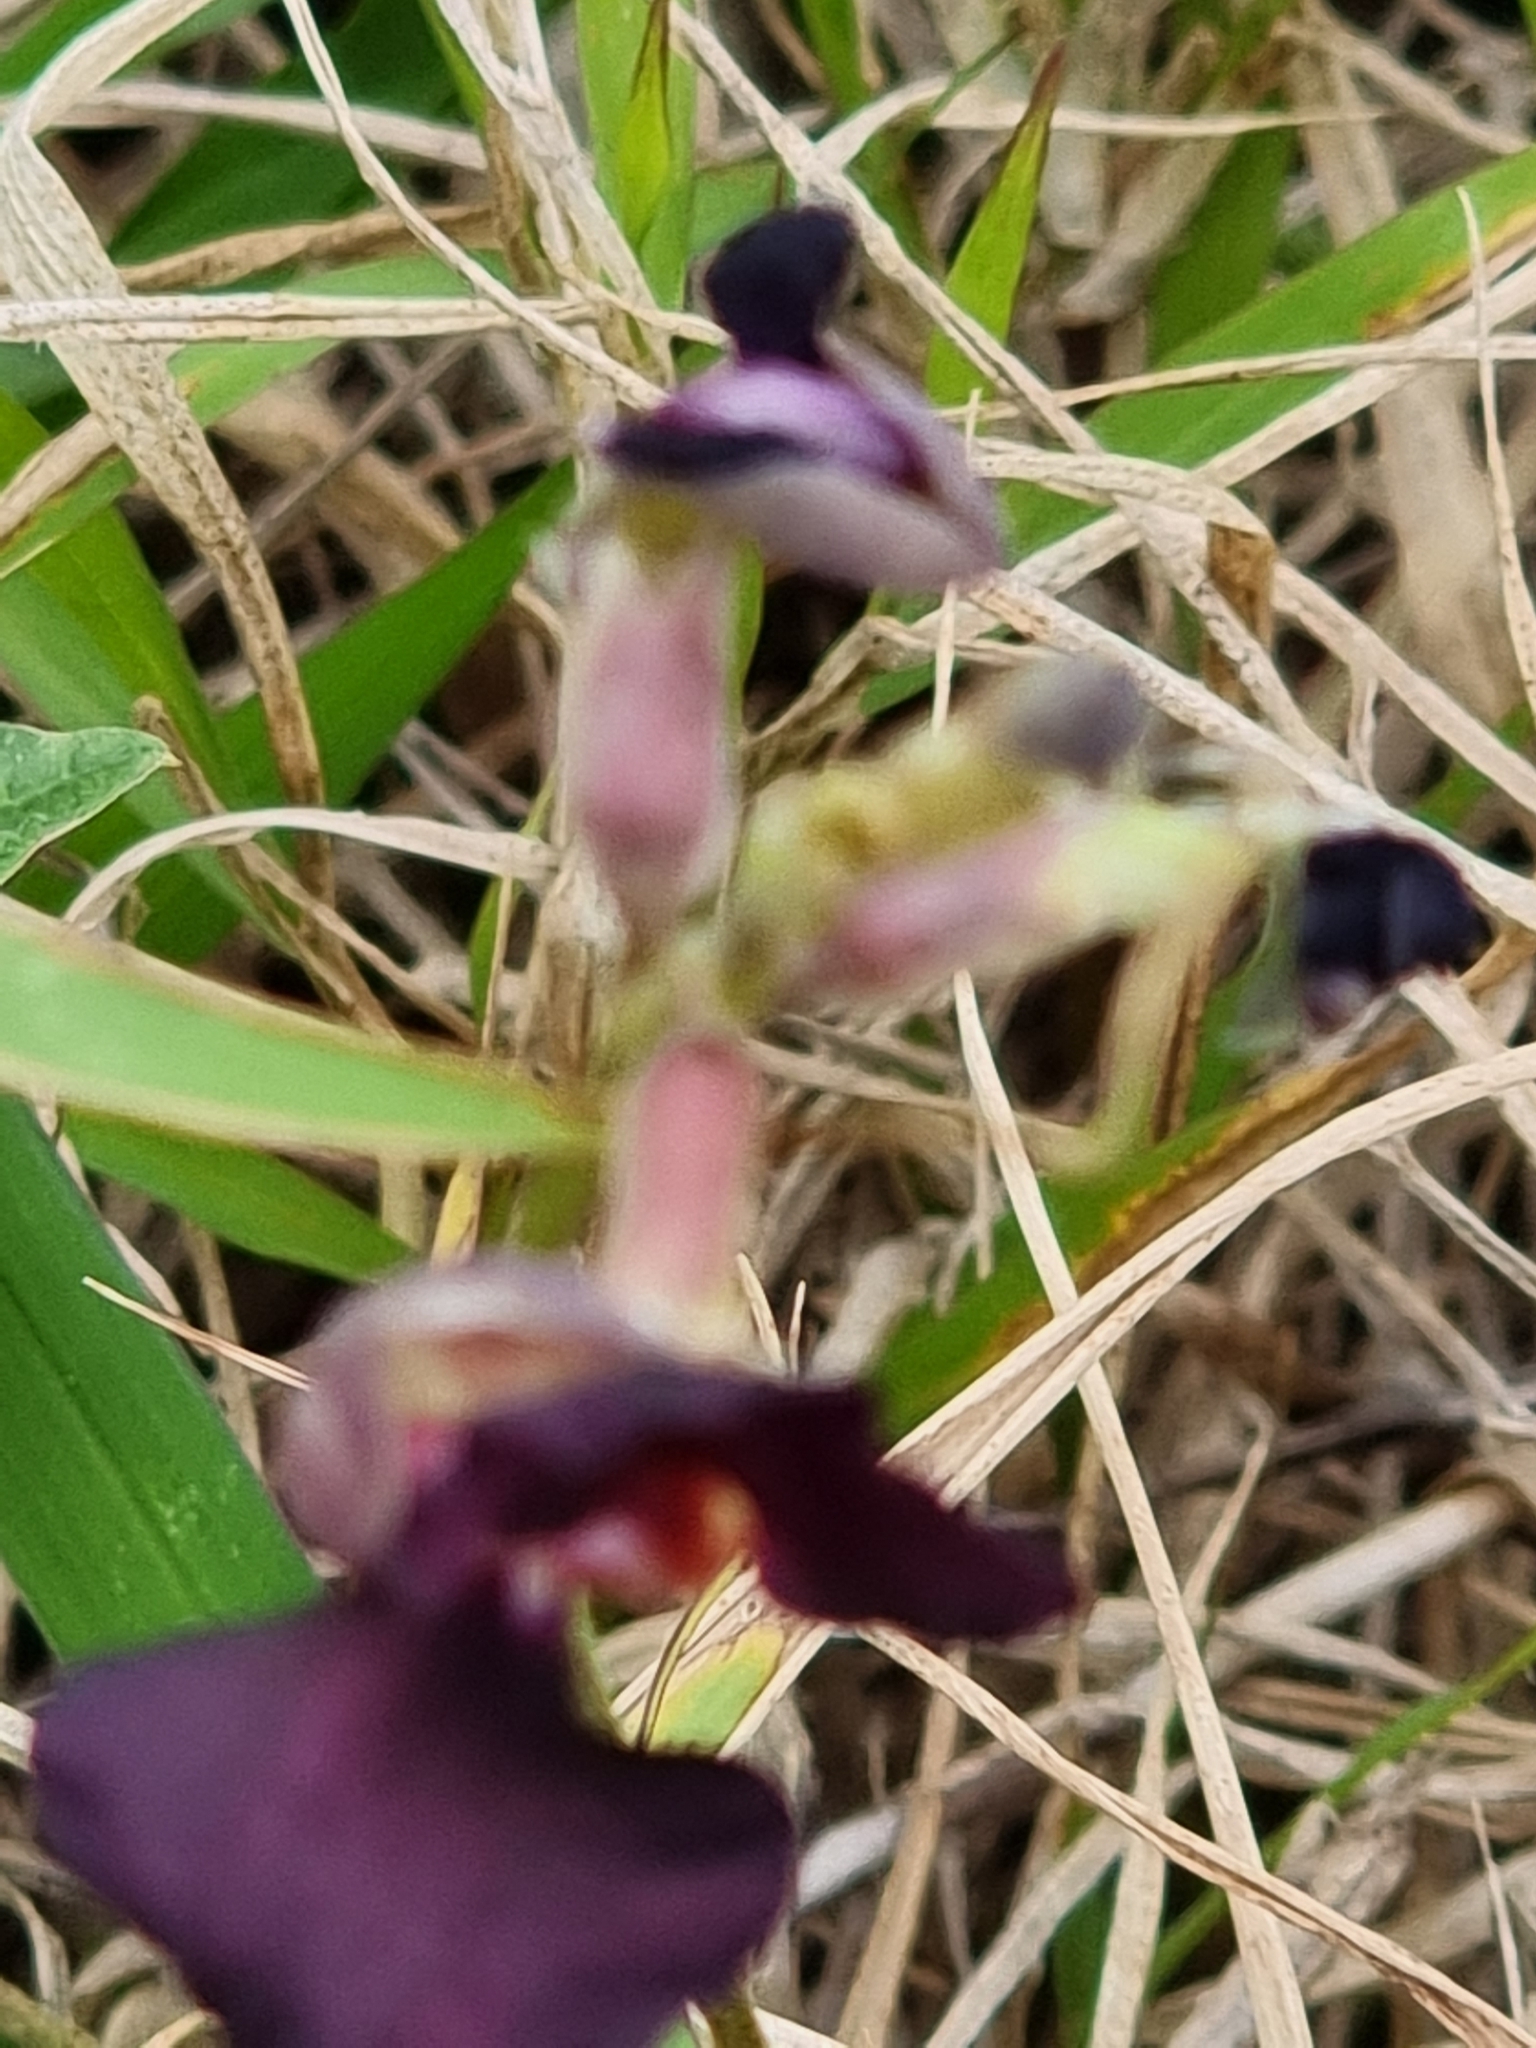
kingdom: Plantae
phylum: Tracheophyta
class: Magnoliopsida
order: Fabales
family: Fabaceae
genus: Macroptilium
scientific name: Macroptilium atropurpureum
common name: Purple bushbean
